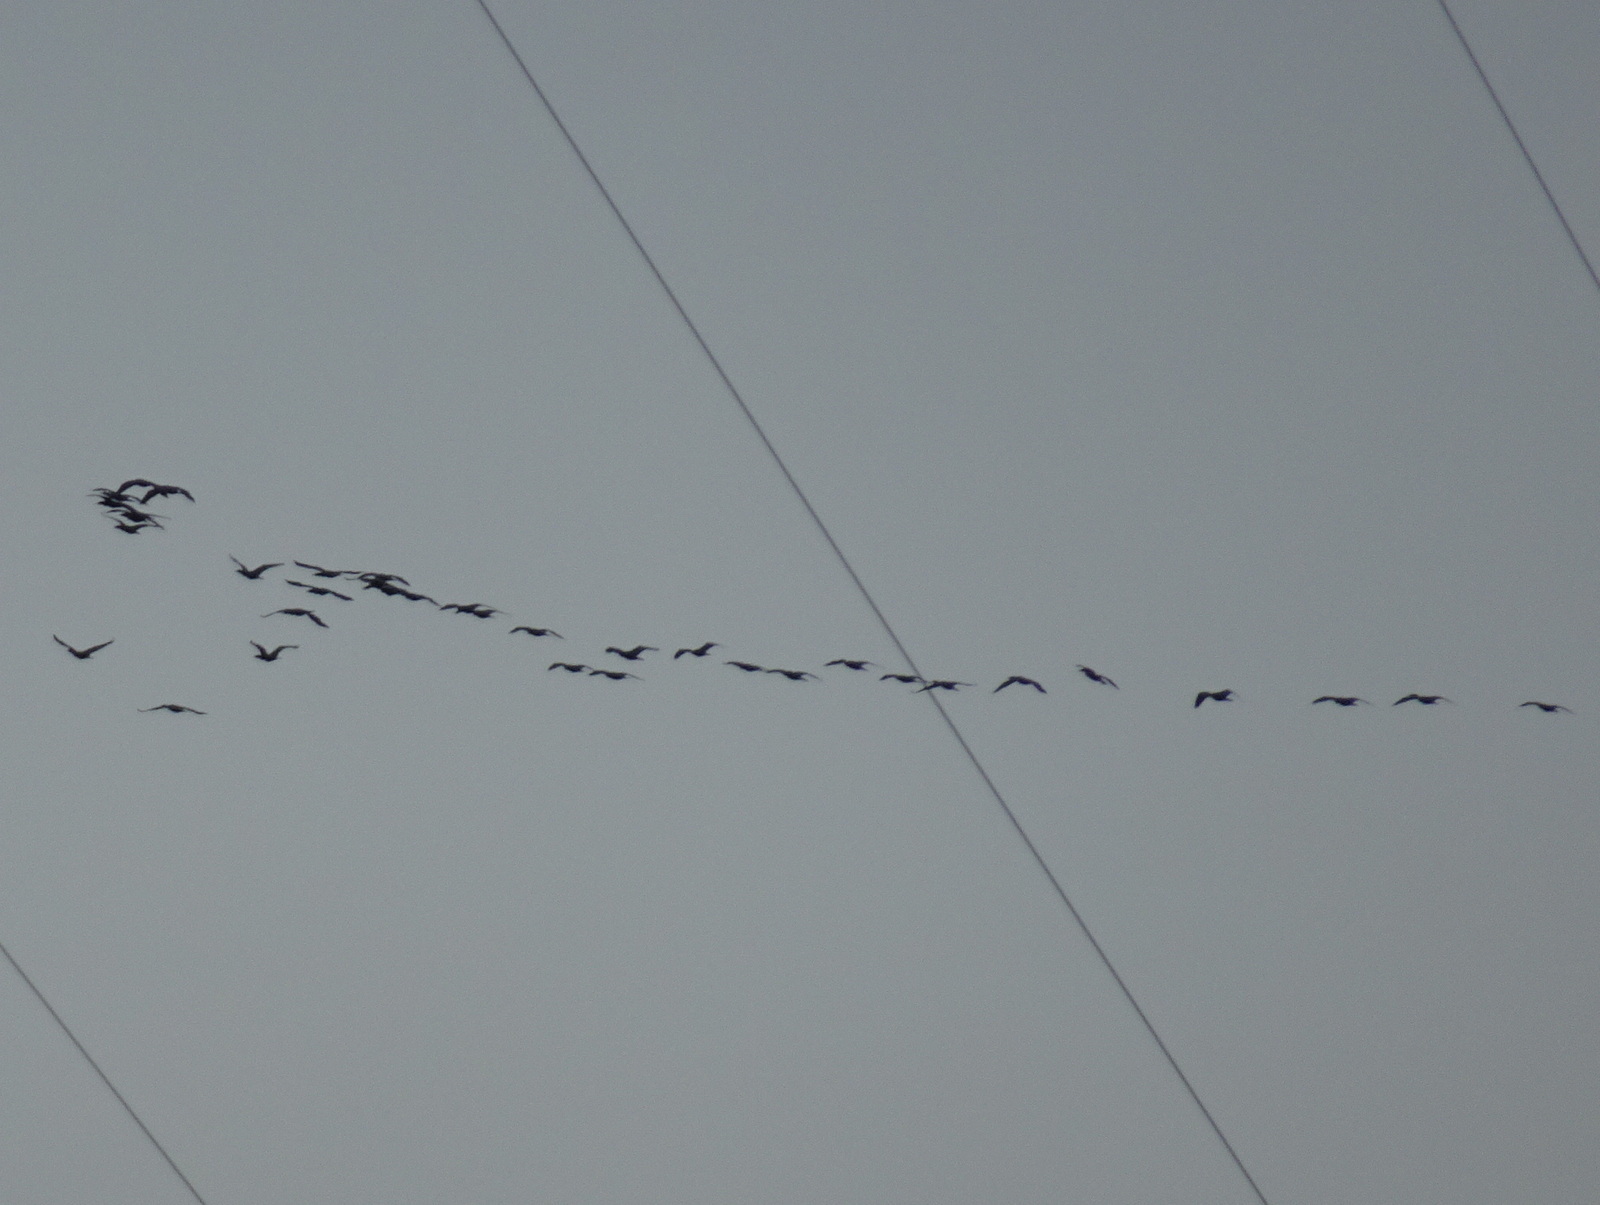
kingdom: Animalia
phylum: Chordata
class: Aves
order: Suliformes
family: Phalacrocoracidae
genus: Phalacrocorax
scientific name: Phalacrocorax auritus
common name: Double-crested cormorant
